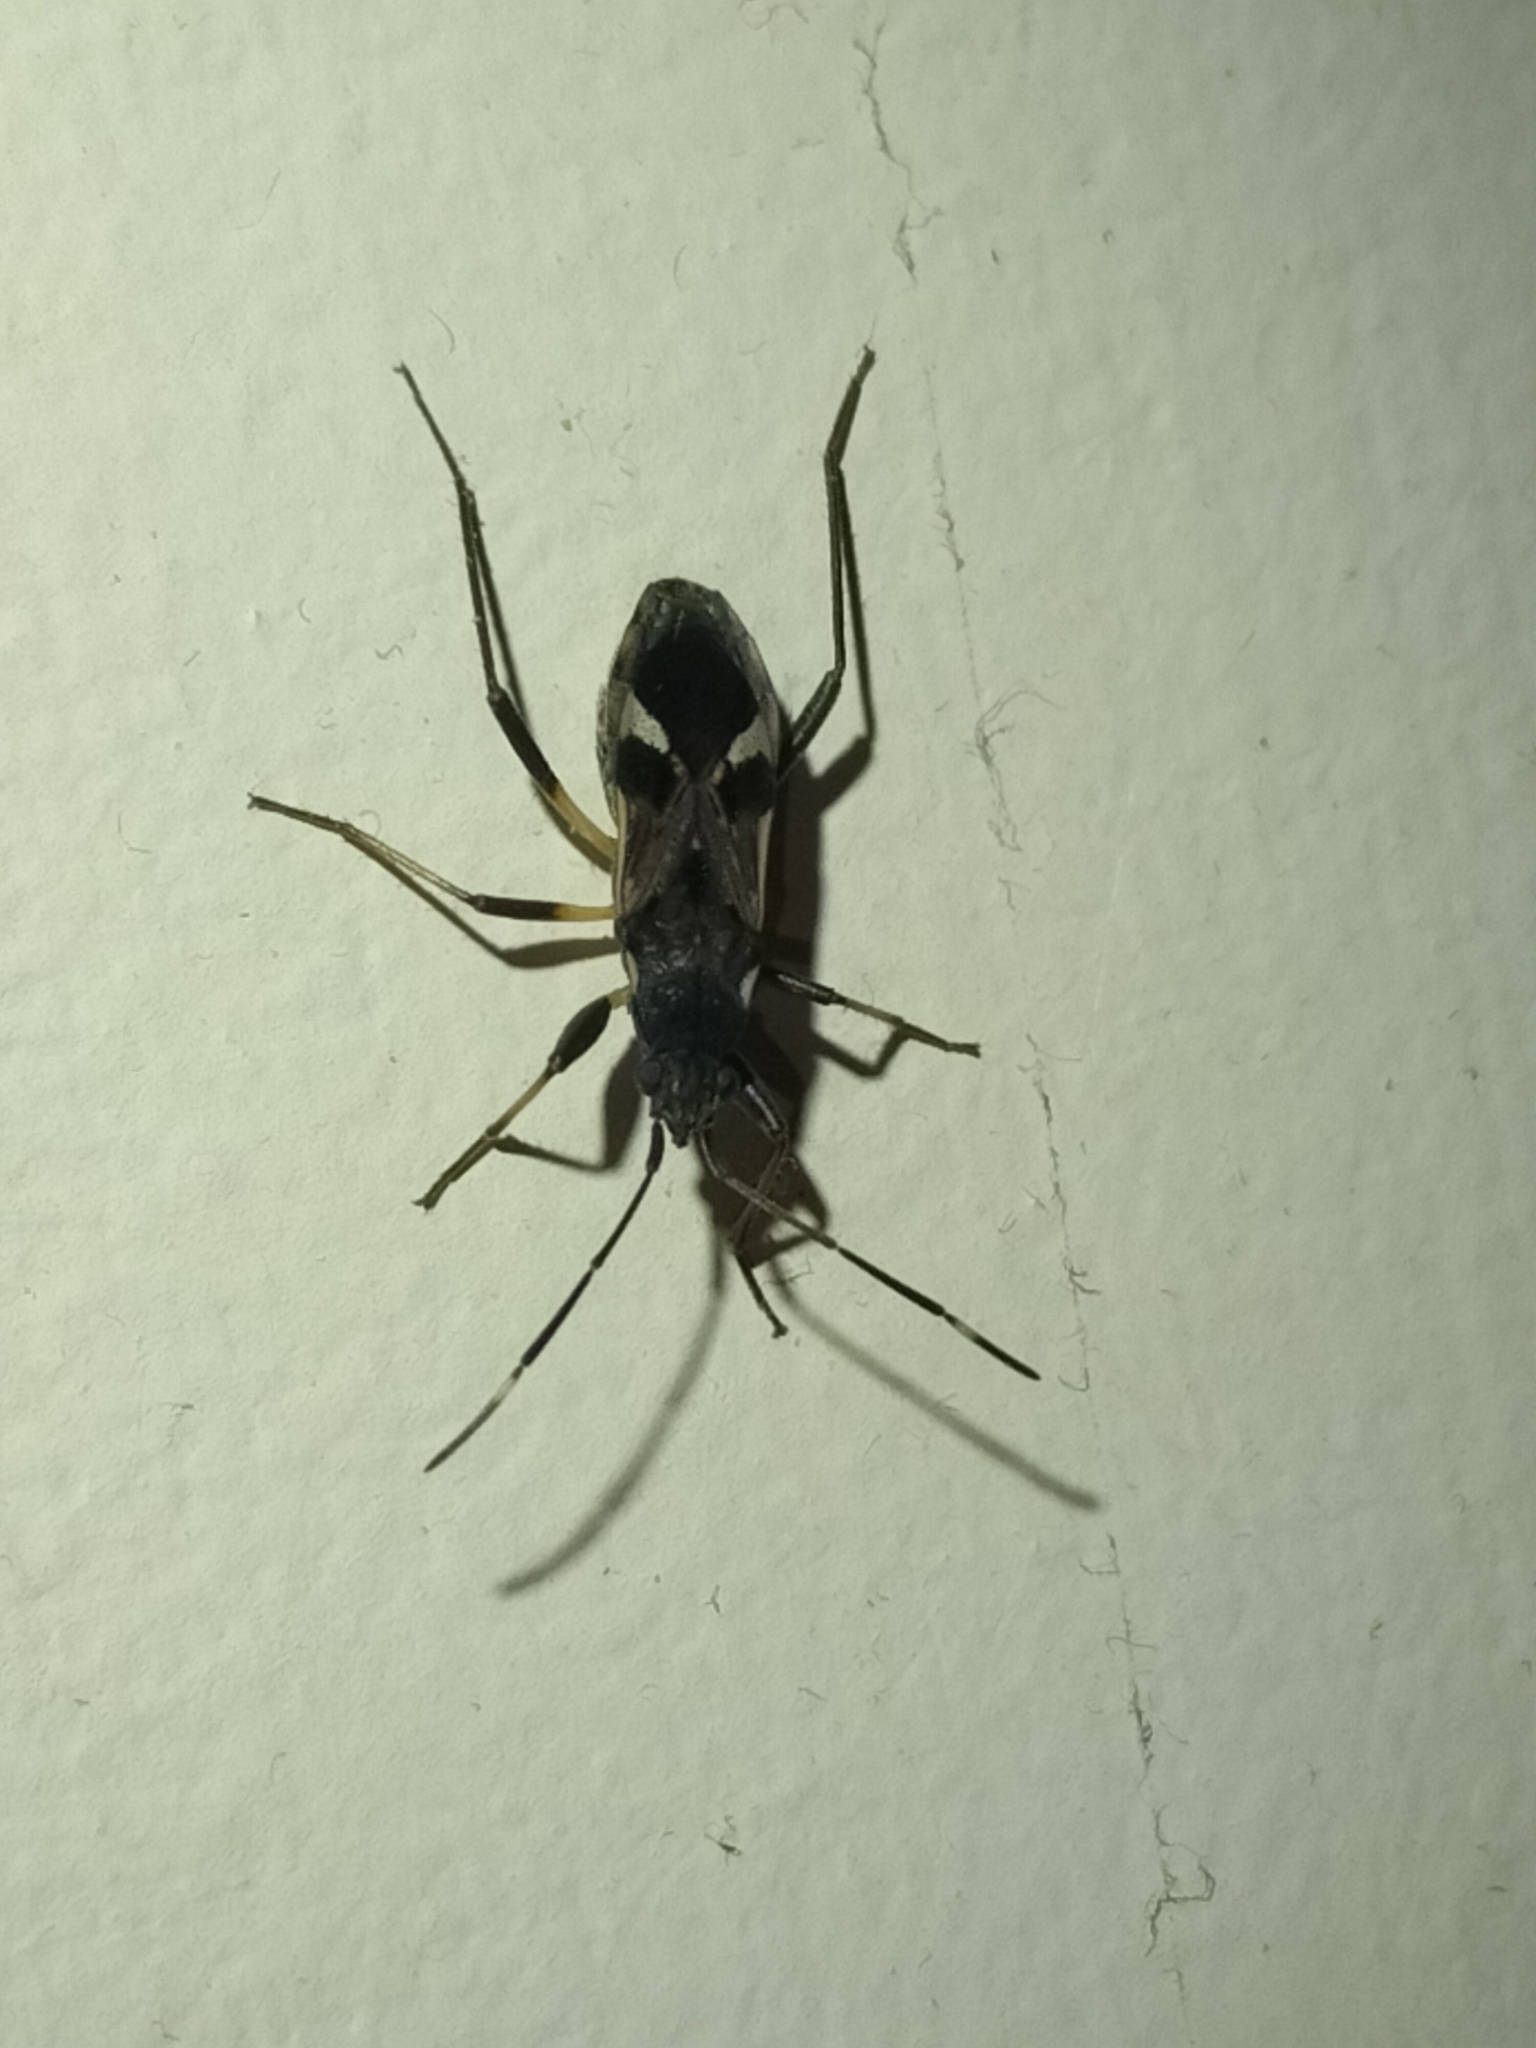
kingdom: Animalia
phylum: Arthropoda
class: Insecta
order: Hemiptera
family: Rhyparochromidae
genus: Dieuches
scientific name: Dieuches notatus
